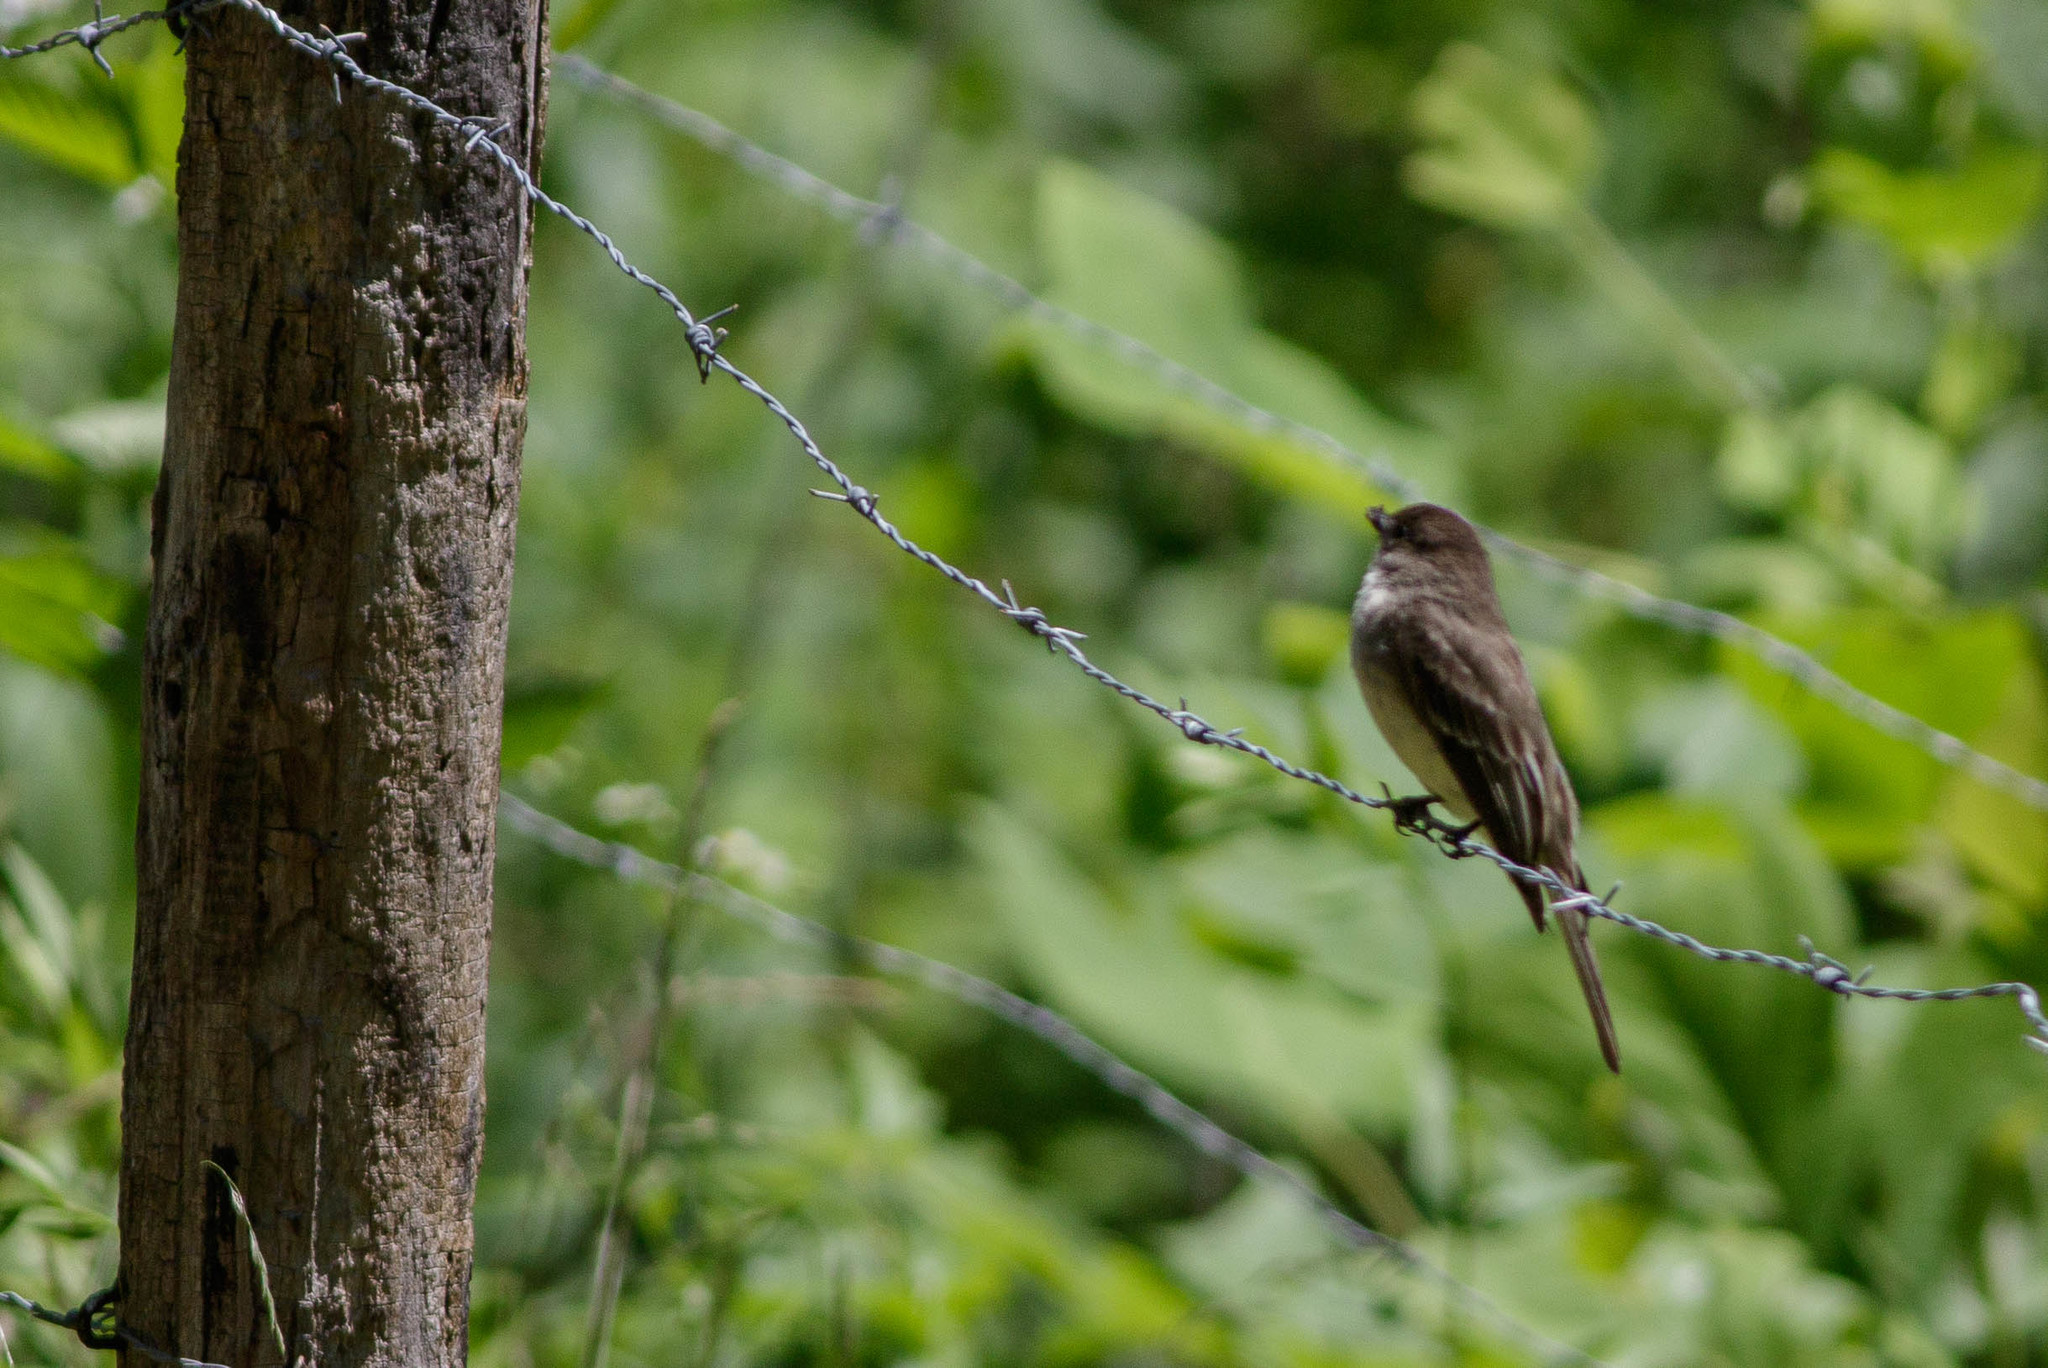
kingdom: Animalia
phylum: Chordata
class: Aves
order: Passeriformes
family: Tyrannidae
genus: Sayornis
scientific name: Sayornis phoebe
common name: Eastern phoebe
